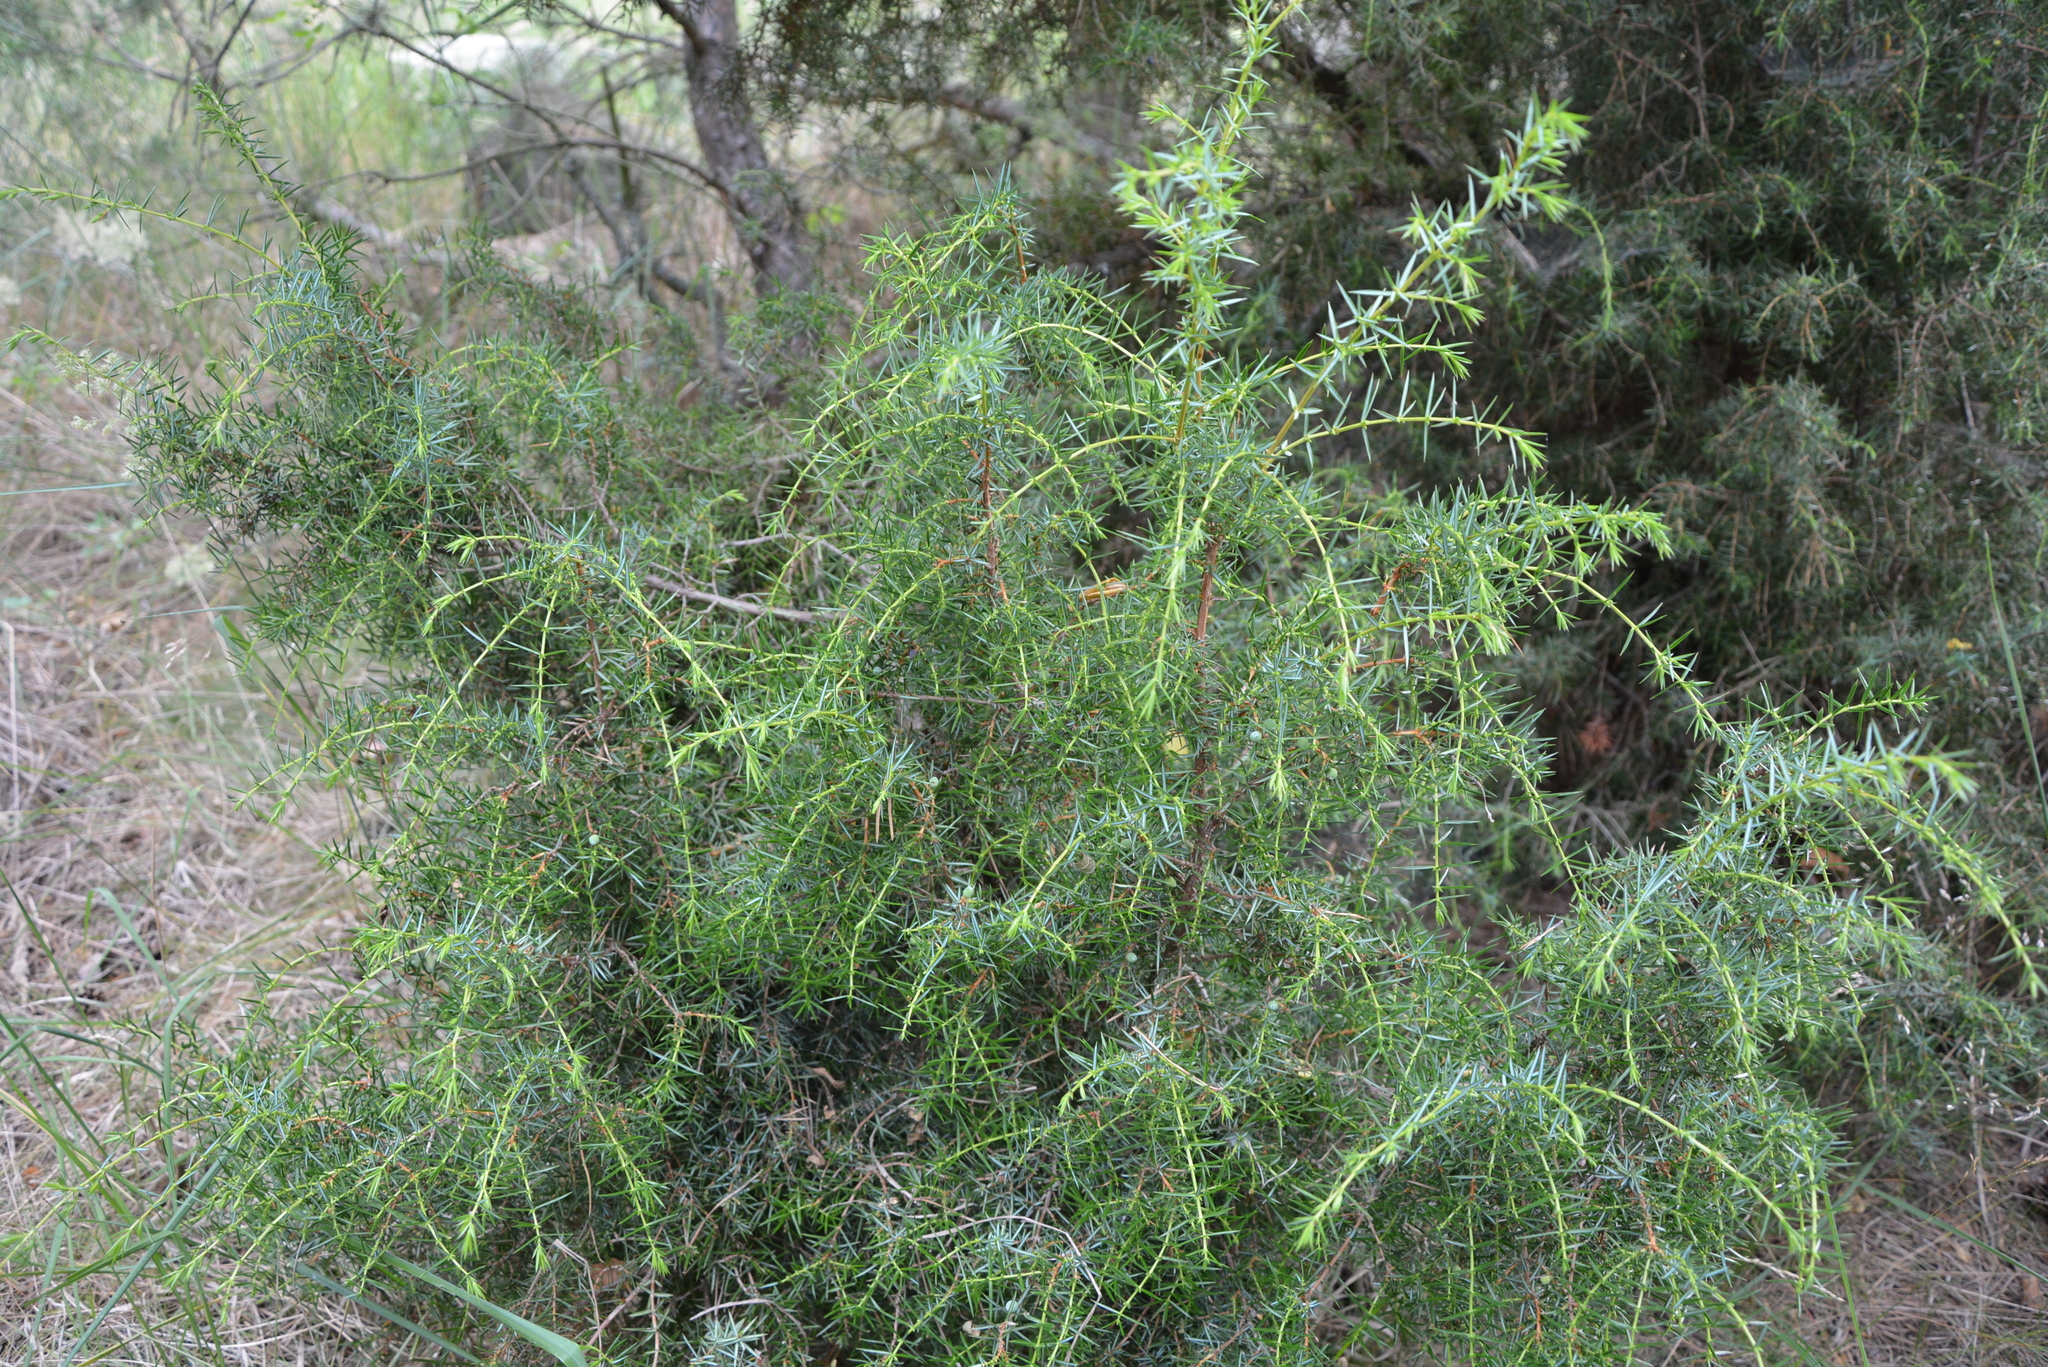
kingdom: Plantae
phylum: Tracheophyta
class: Pinopsida
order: Pinales
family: Cupressaceae
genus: Juniperus
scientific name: Juniperus communis
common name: Common juniper
